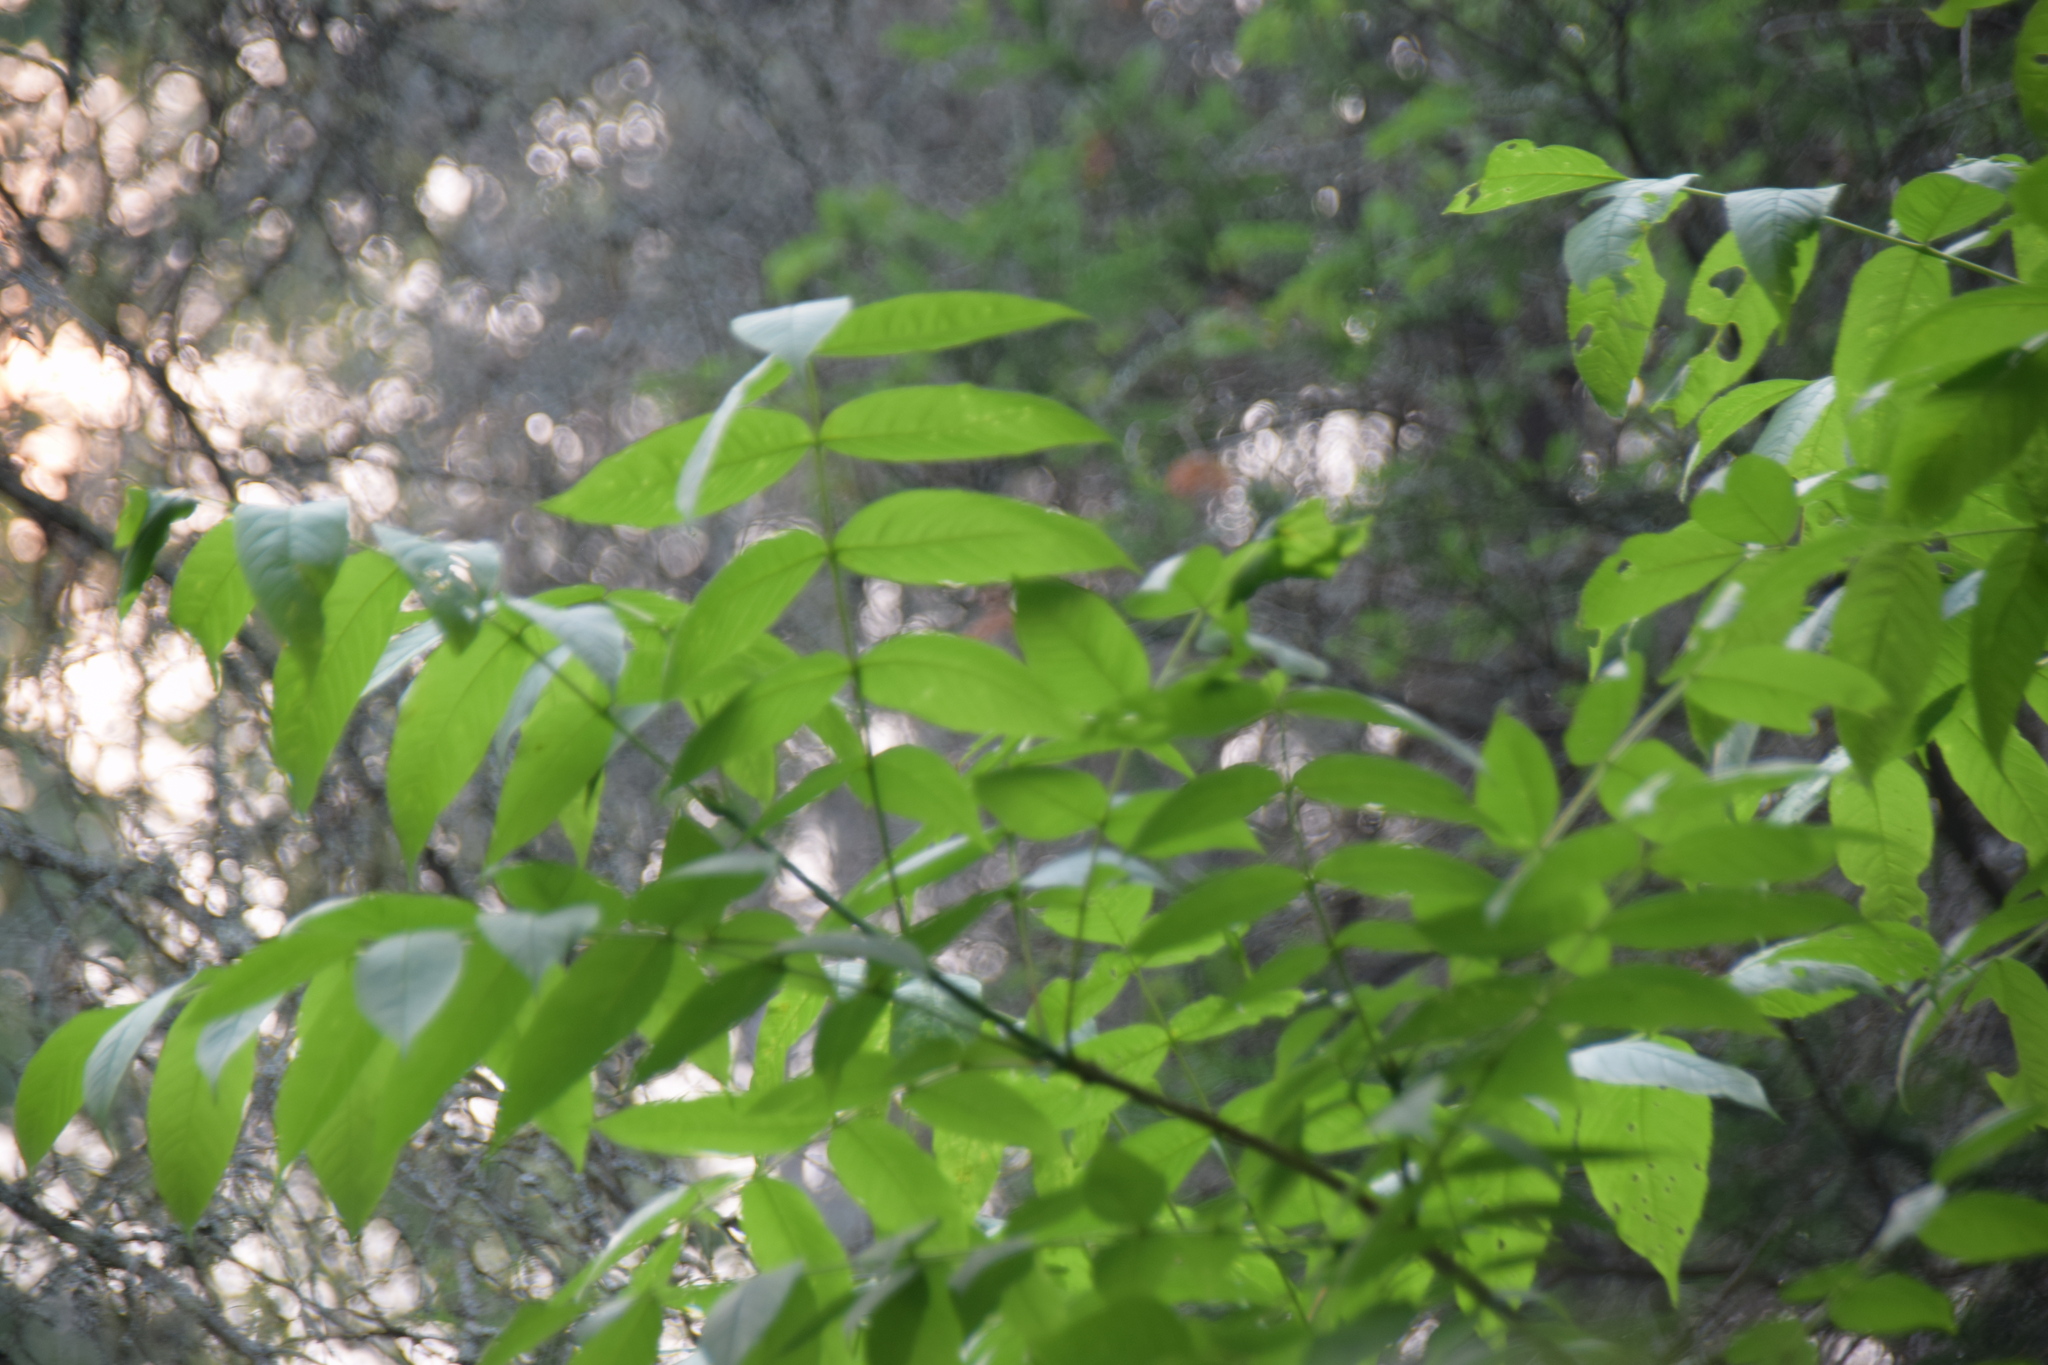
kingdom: Plantae
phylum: Tracheophyta
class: Magnoliopsida
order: Lamiales
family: Oleaceae
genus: Fraxinus
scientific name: Fraxinus nigra
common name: Black ash
